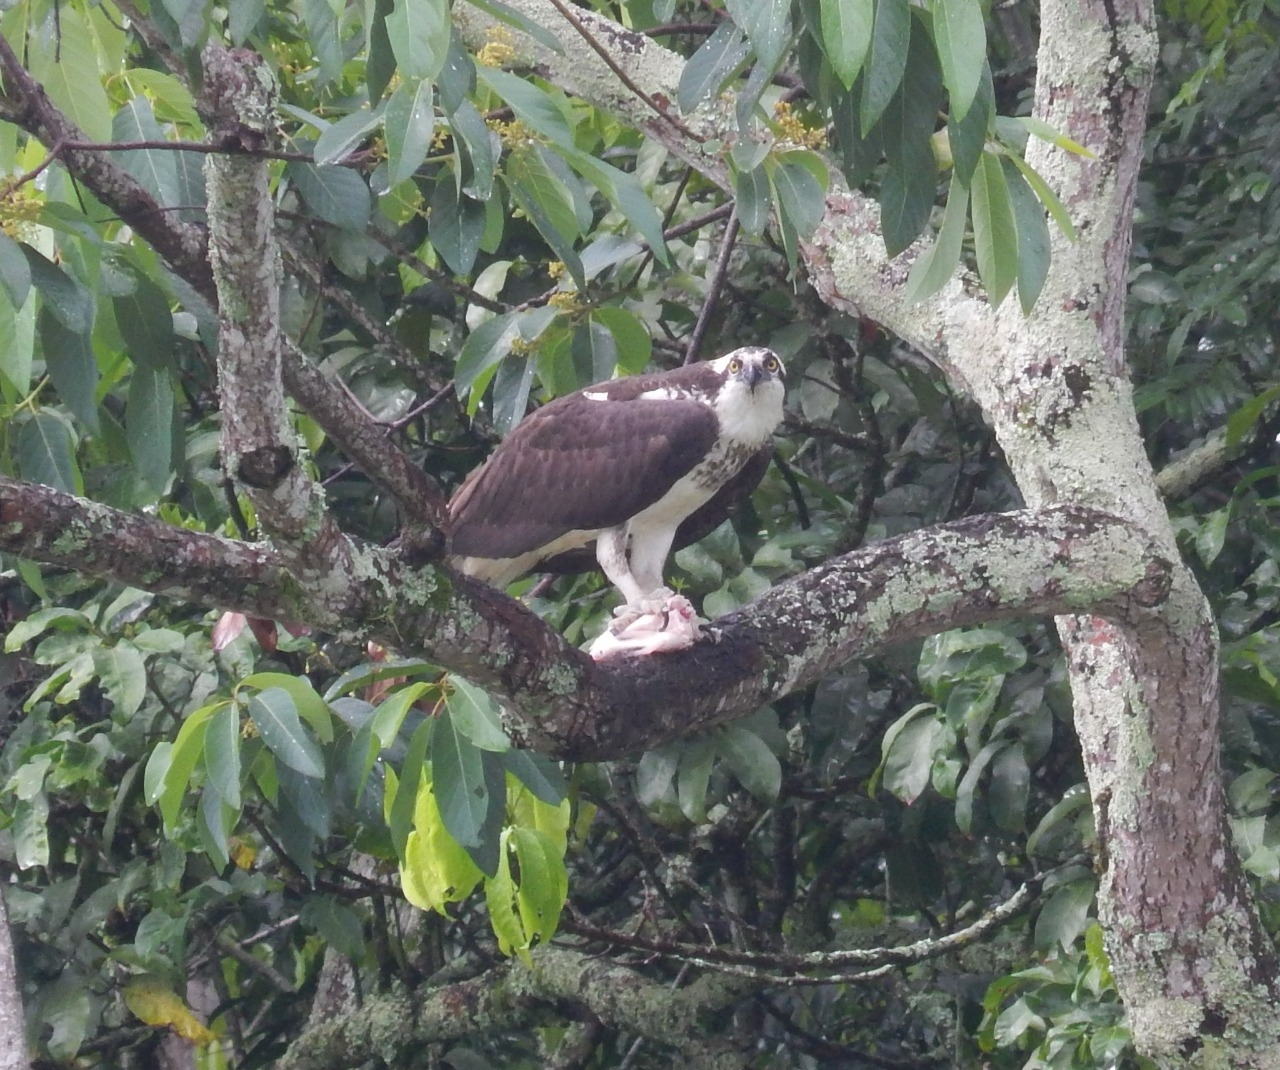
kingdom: Animalia
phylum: Chordata
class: Aves
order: Accipitriformes
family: Pandionidae
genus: Pandion
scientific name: Pandion haliaetus
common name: Osprey
